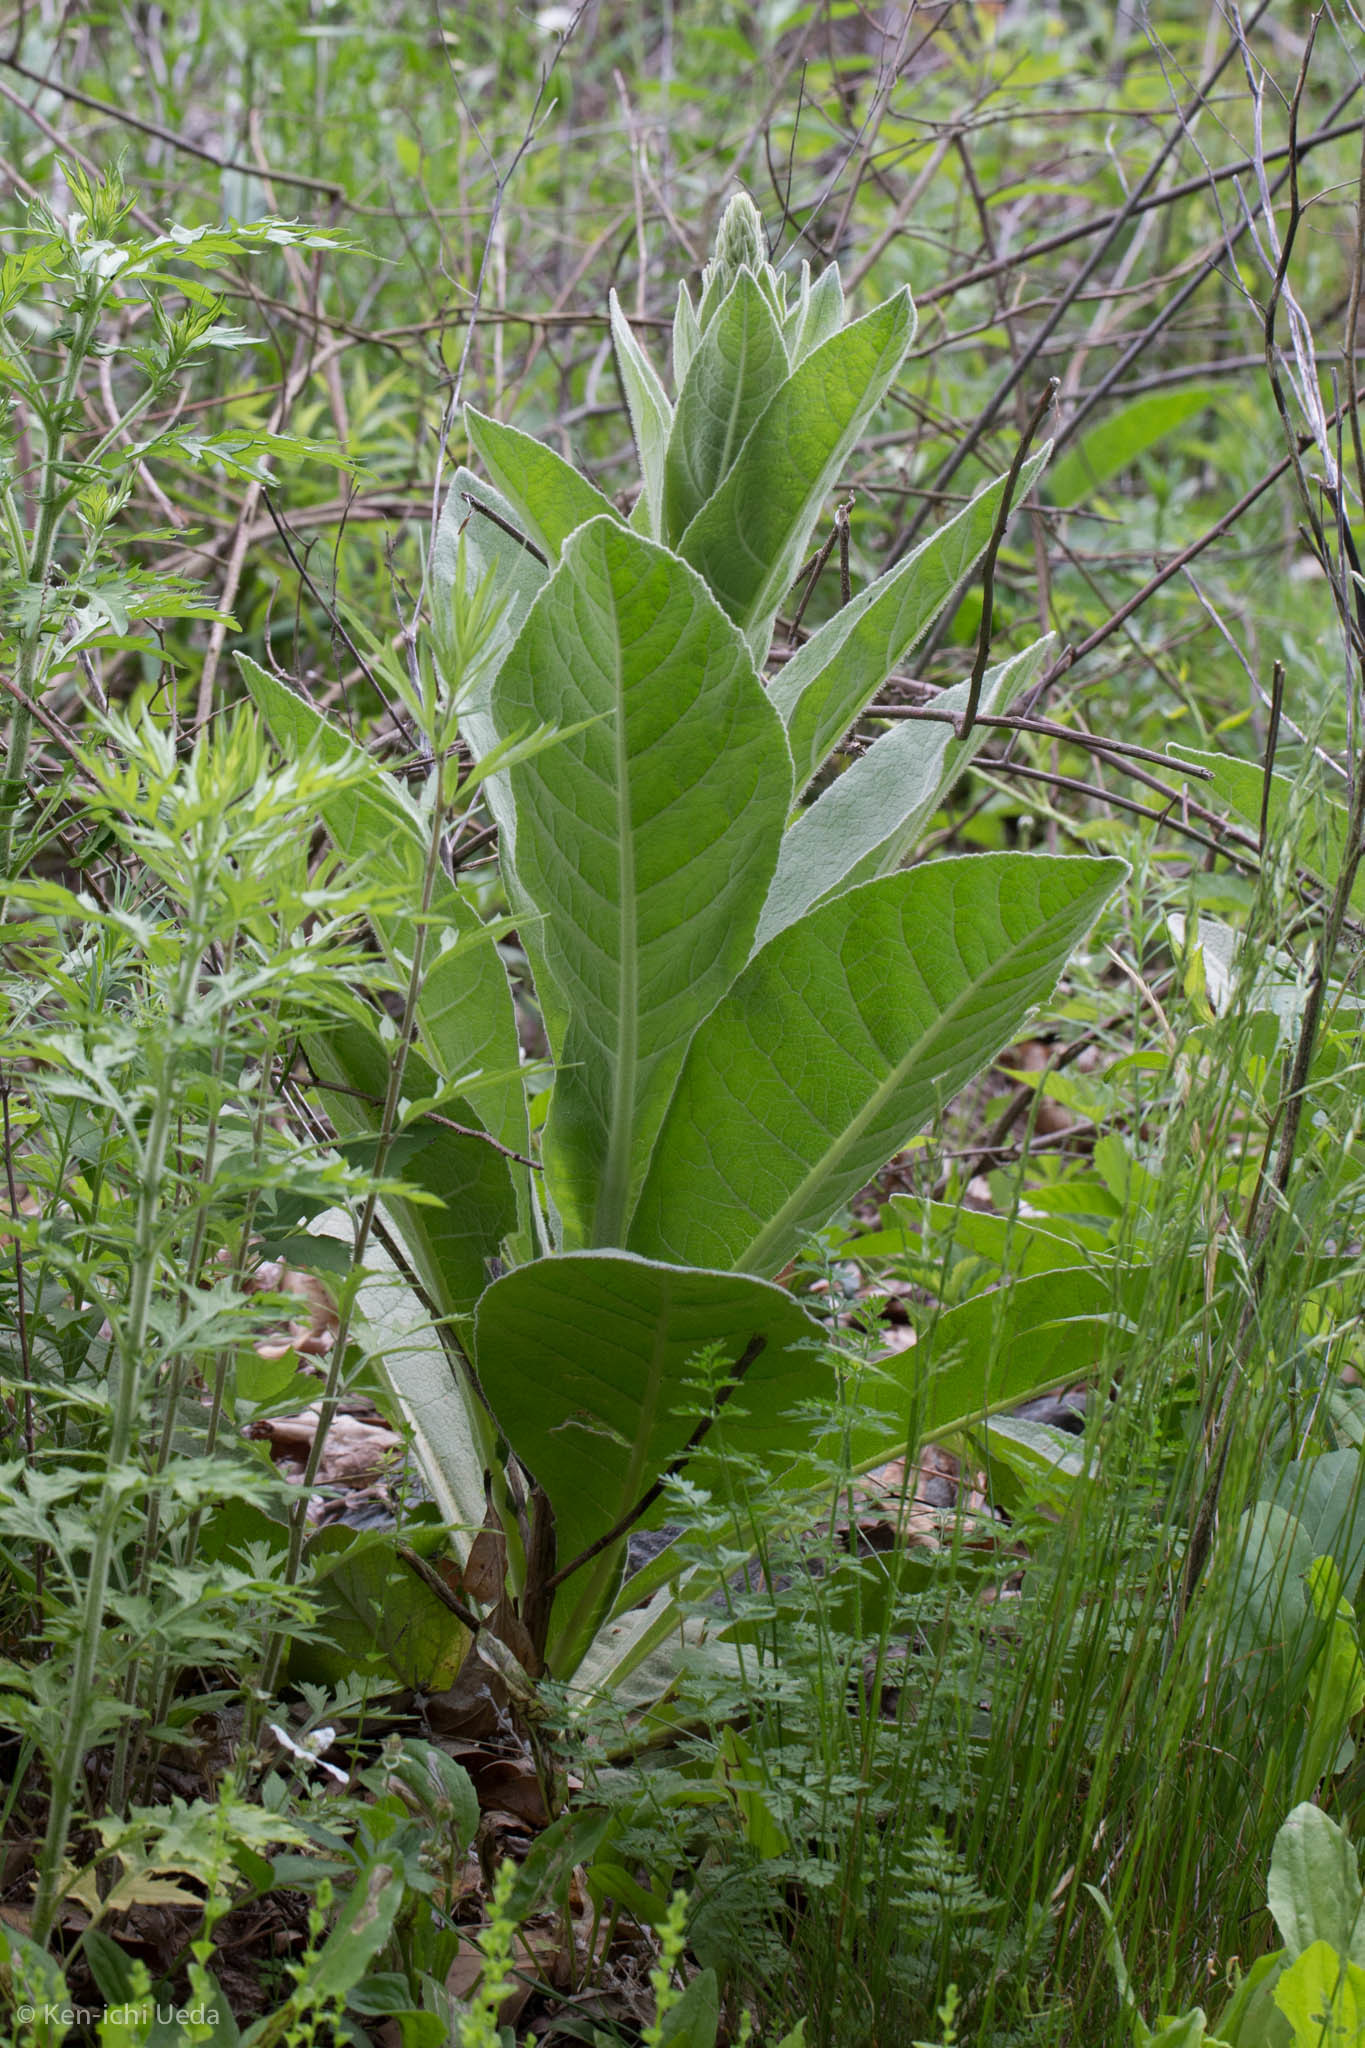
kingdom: Plantae
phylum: Tracheophyta
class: Magnoliopsida
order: Lamiales
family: Scrophulariaceae
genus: Verbascum
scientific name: Verbascum thapsus
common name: Common mullein
